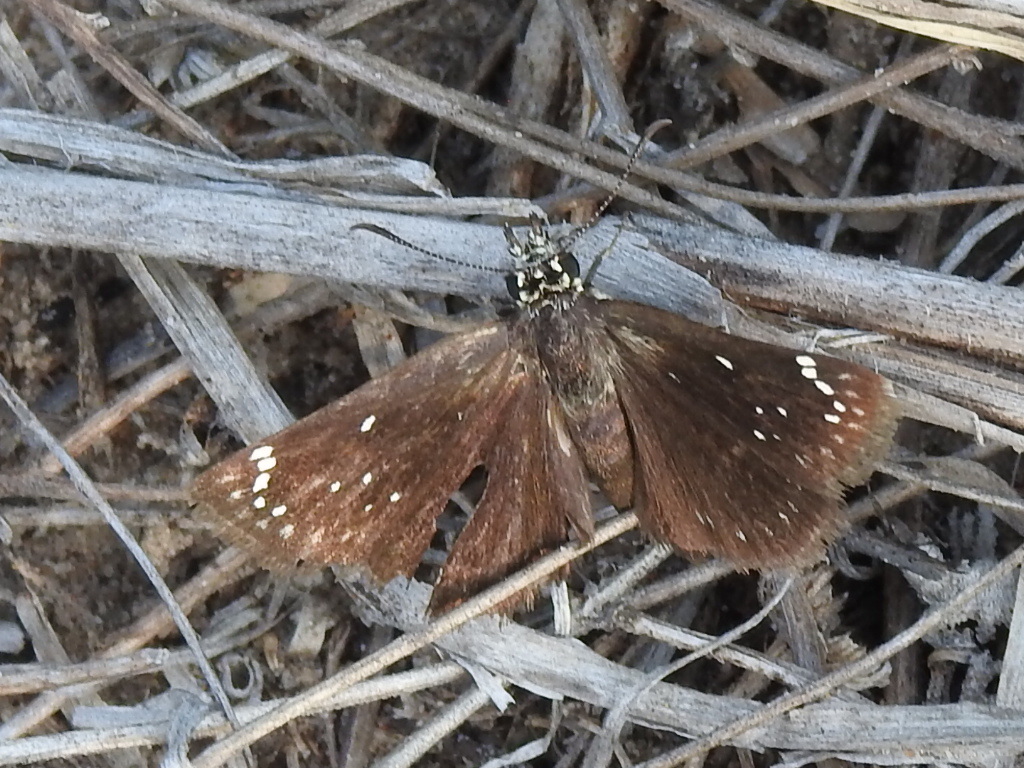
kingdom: Animalia
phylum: Arthropoda
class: Insecta
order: Lepidoptera
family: Hesperiidae
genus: Pholisora
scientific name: Pholisora catullus
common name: Common sootywing
